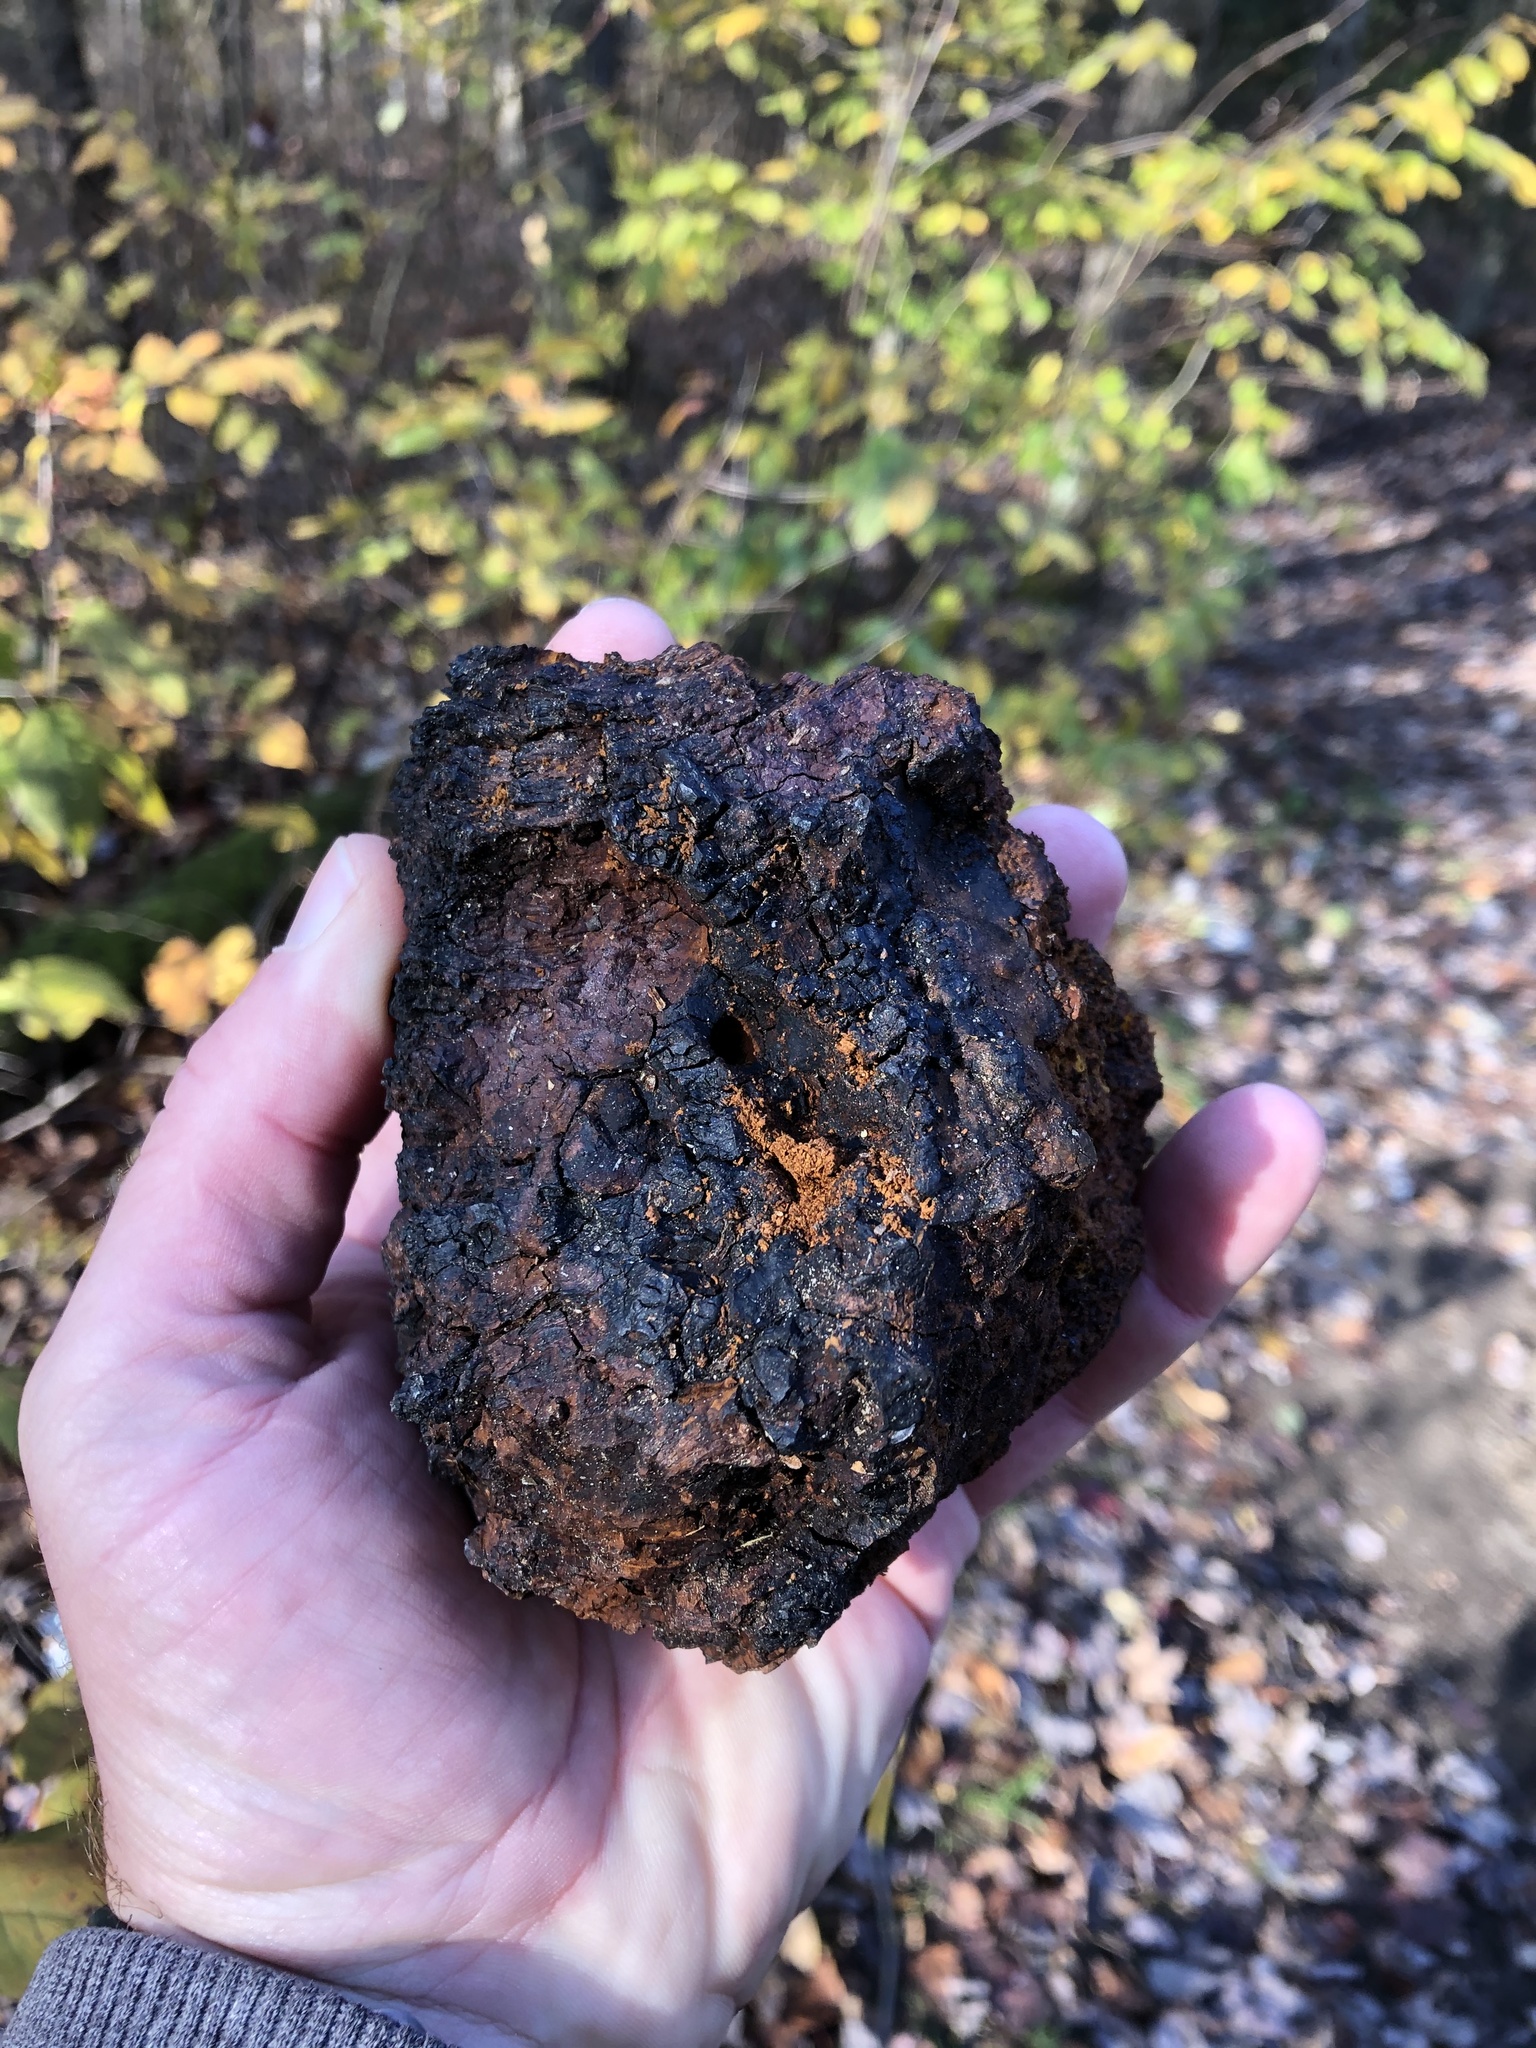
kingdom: Fungi
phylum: Basidiomycota
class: Agaricomycetes
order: Hymenochaetales
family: Hymenochaetaceae
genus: Inonotus
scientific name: Inonotus obliquus
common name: Chaga
